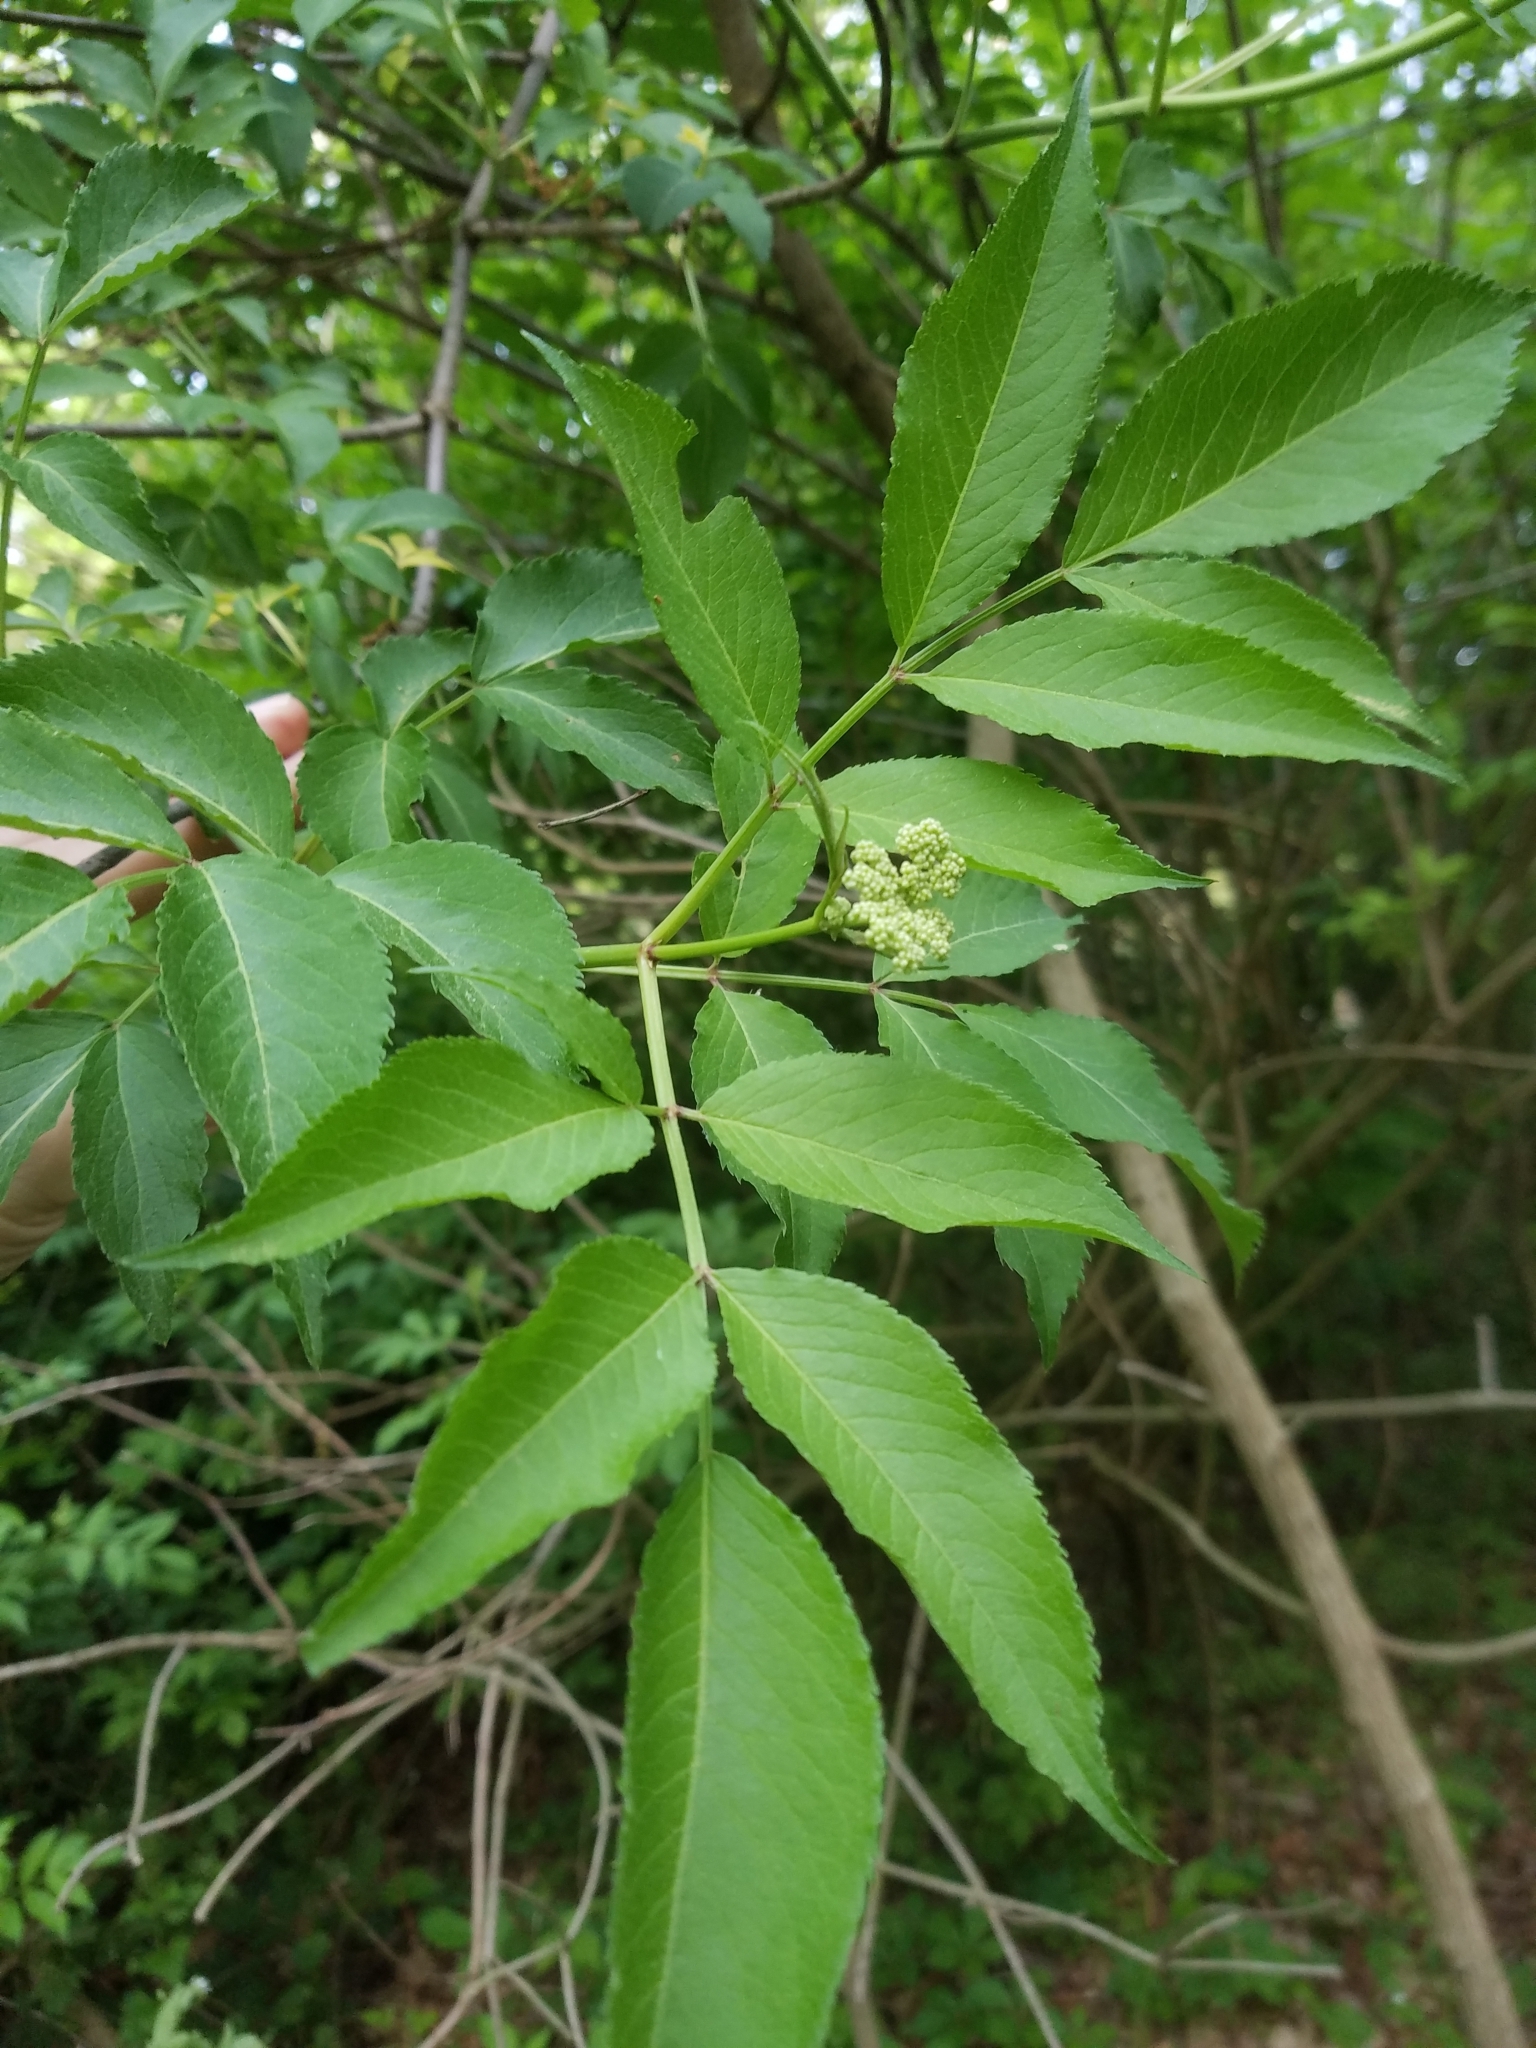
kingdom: Plantae
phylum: Tracheophyta
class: Magnoliopsida
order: Dipsacales
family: Viburnaceae
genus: Sambucus
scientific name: Sambucus canadensis
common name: American elder
